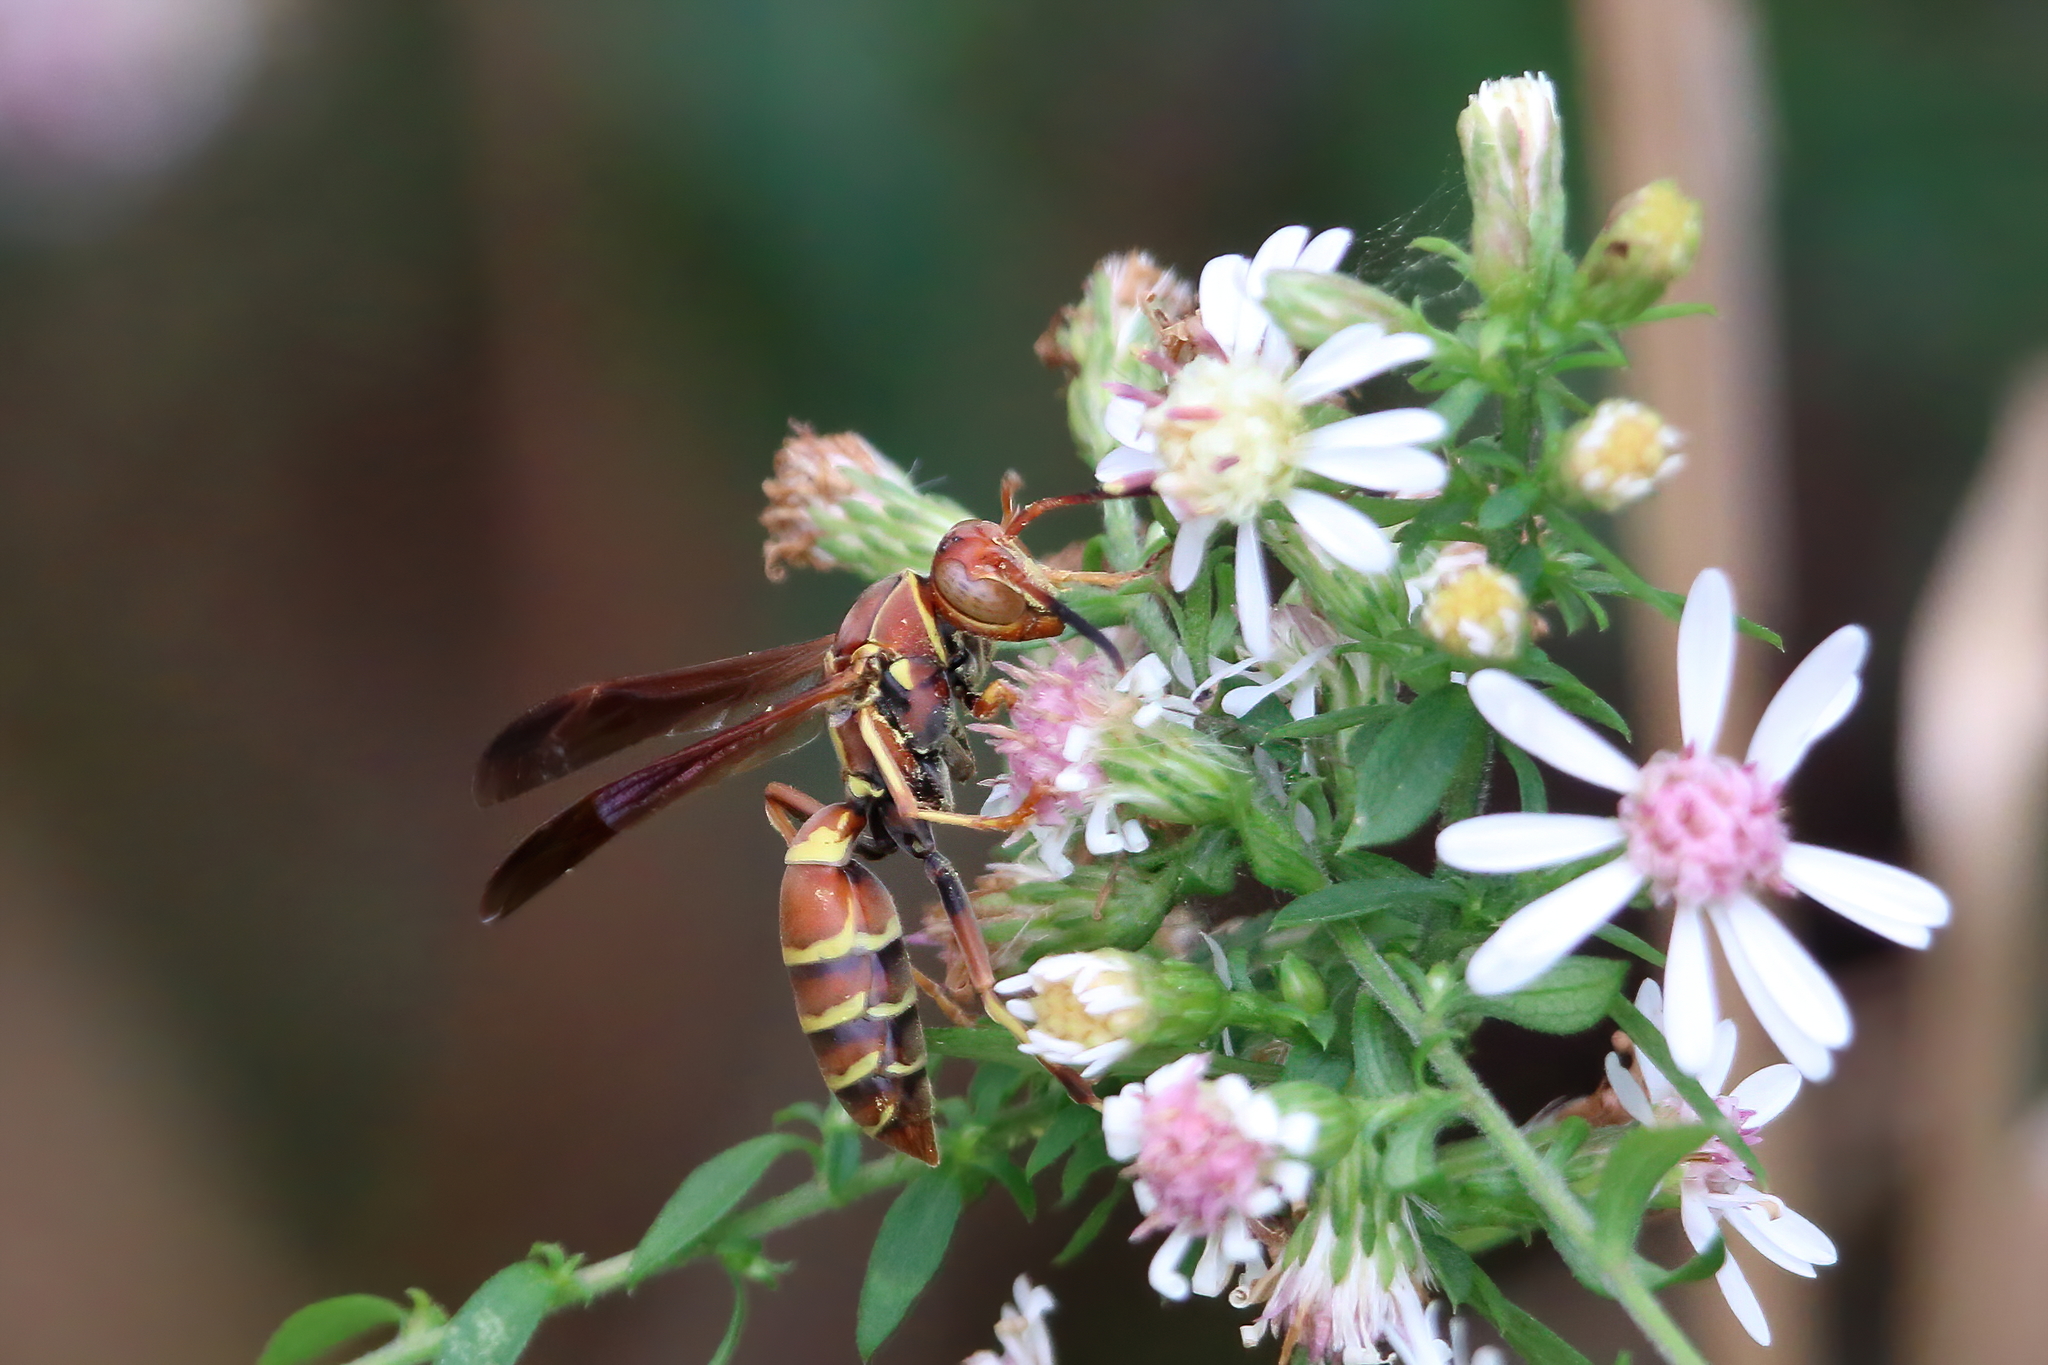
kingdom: Animalia
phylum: Arthropoda
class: Insecta
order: Hymenoptera
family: Eumenidae
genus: Polistes
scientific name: Polistes dorsalis
